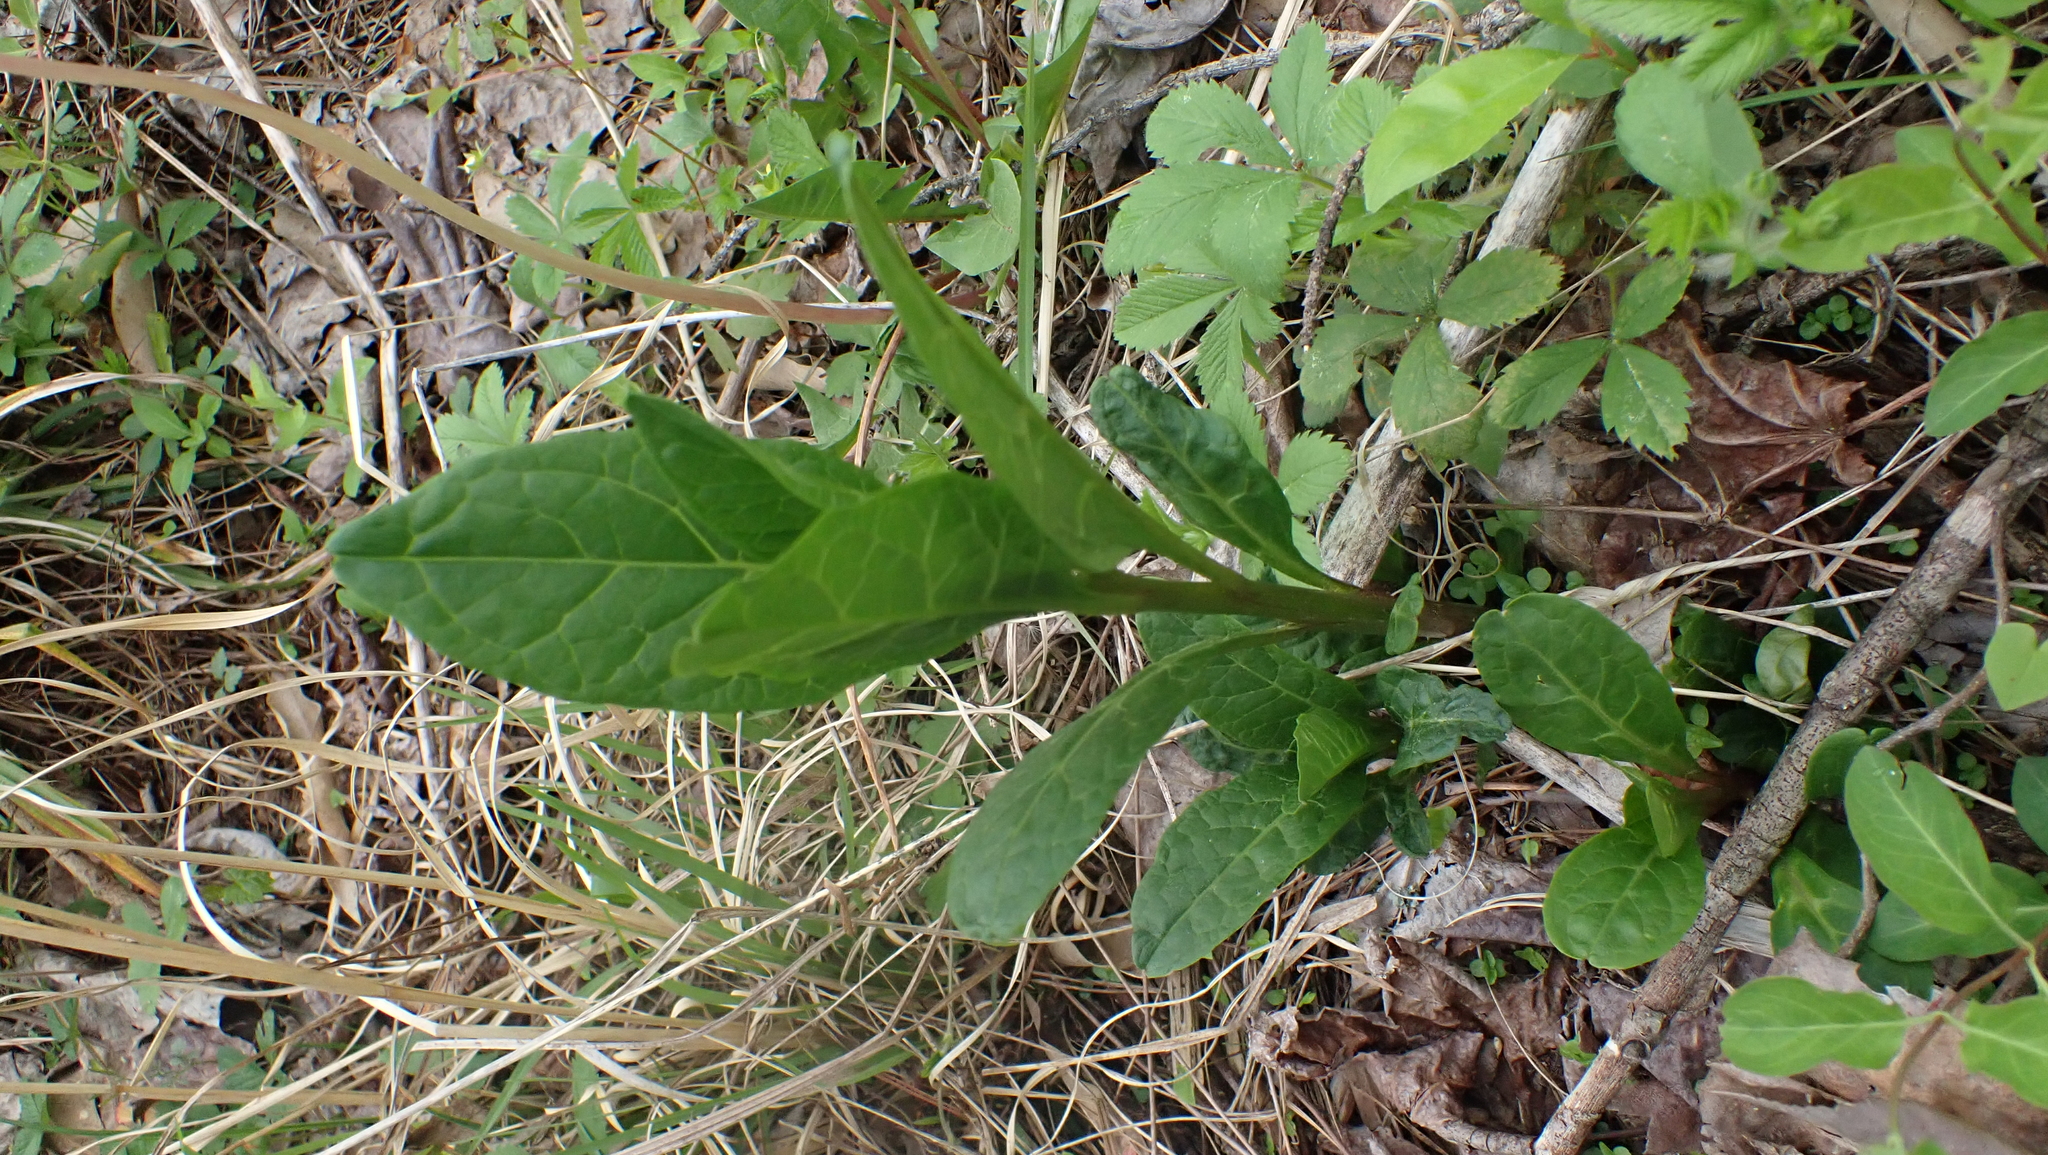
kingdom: Plantae
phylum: Tracheophyta
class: Magnoliopsida
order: Caryophyllales
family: Phytolaccaceae
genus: Phytolacca
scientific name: Phytolacca americana
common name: American pokeweed
